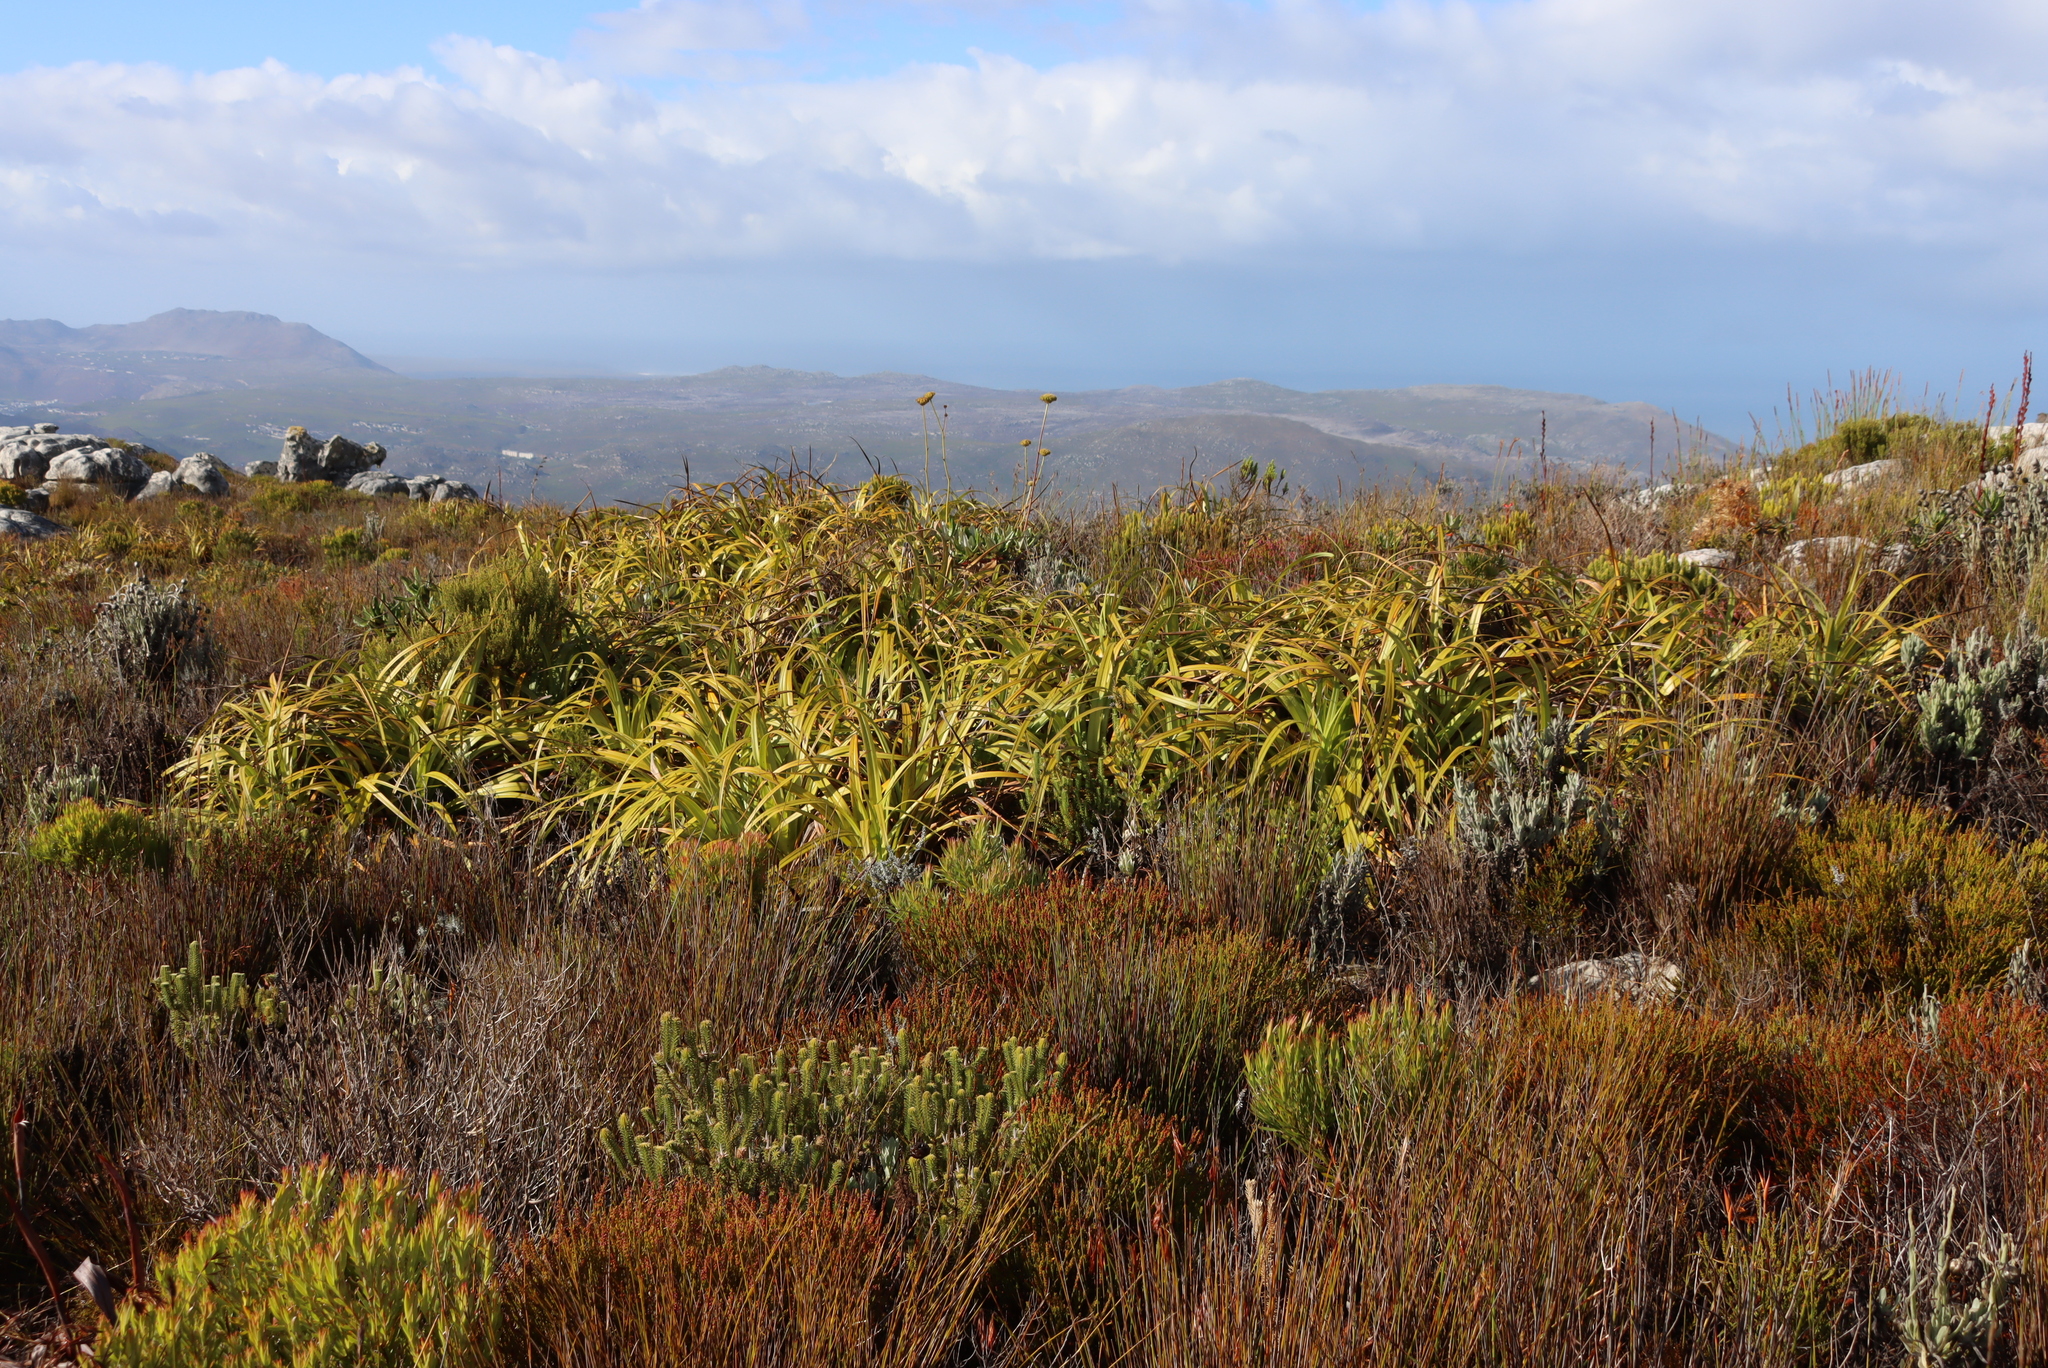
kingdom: Plantae
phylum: Tracheophyta
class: Liliopsida
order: Poales
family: Cyperaceae
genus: Tetraria
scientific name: Tetraria thermalis
